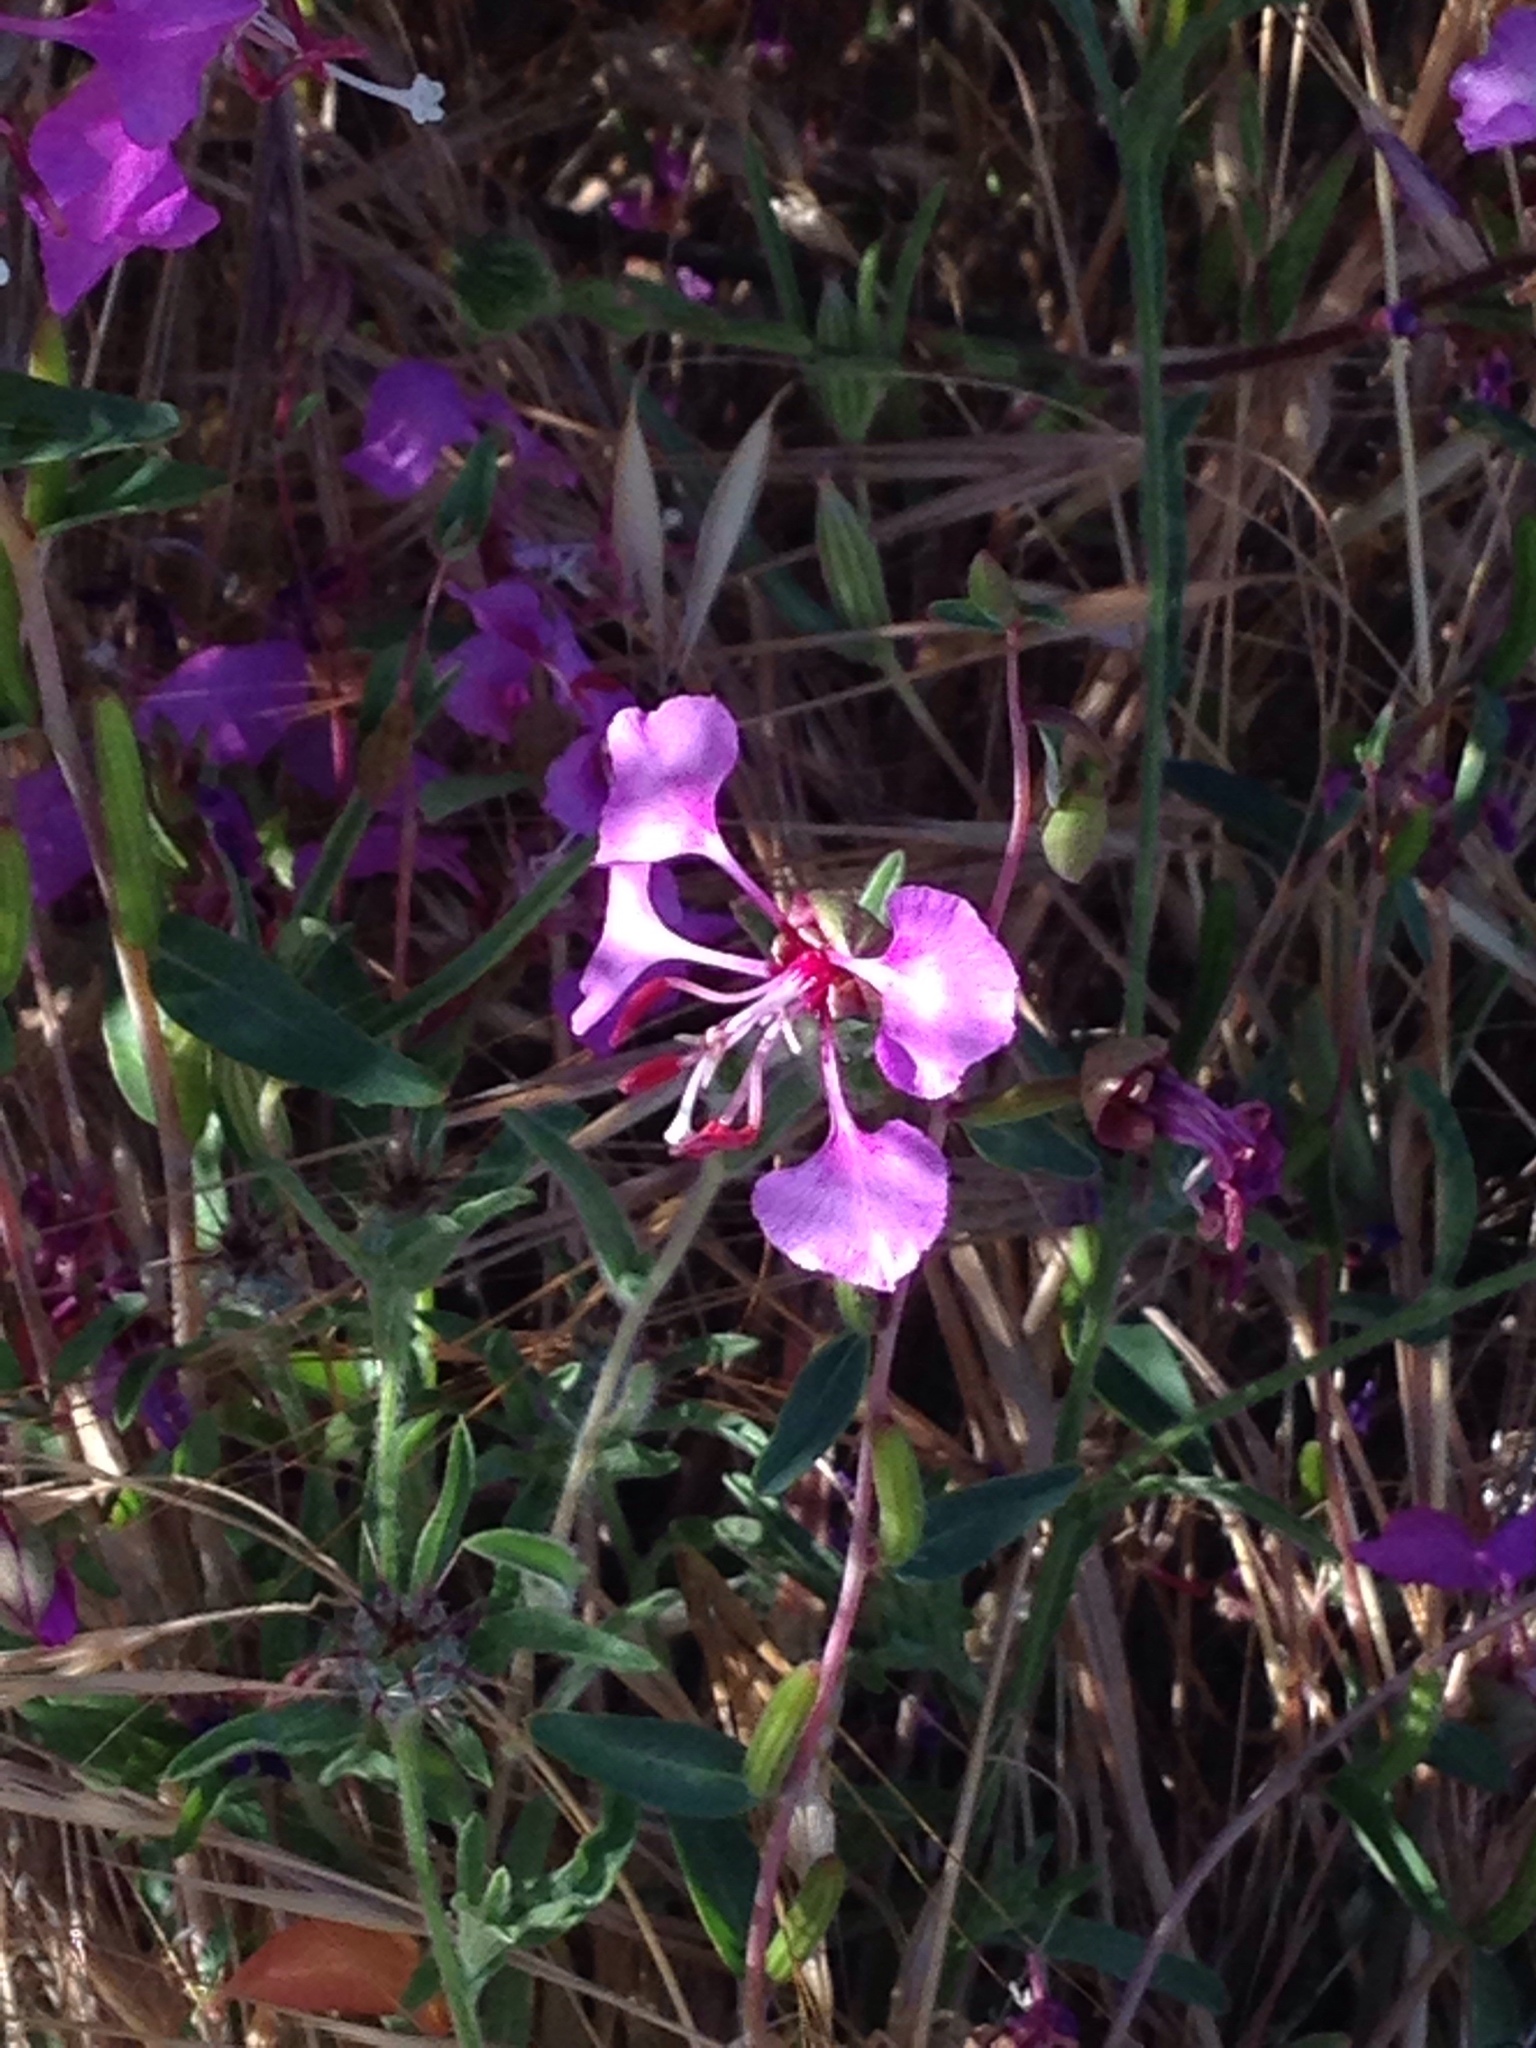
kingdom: Plantae
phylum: Tracheophyta
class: Magnoliopsida
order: Myrtales
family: Onagraceae
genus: Clarkia
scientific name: Clarkia unguiculata
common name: Clarkia
